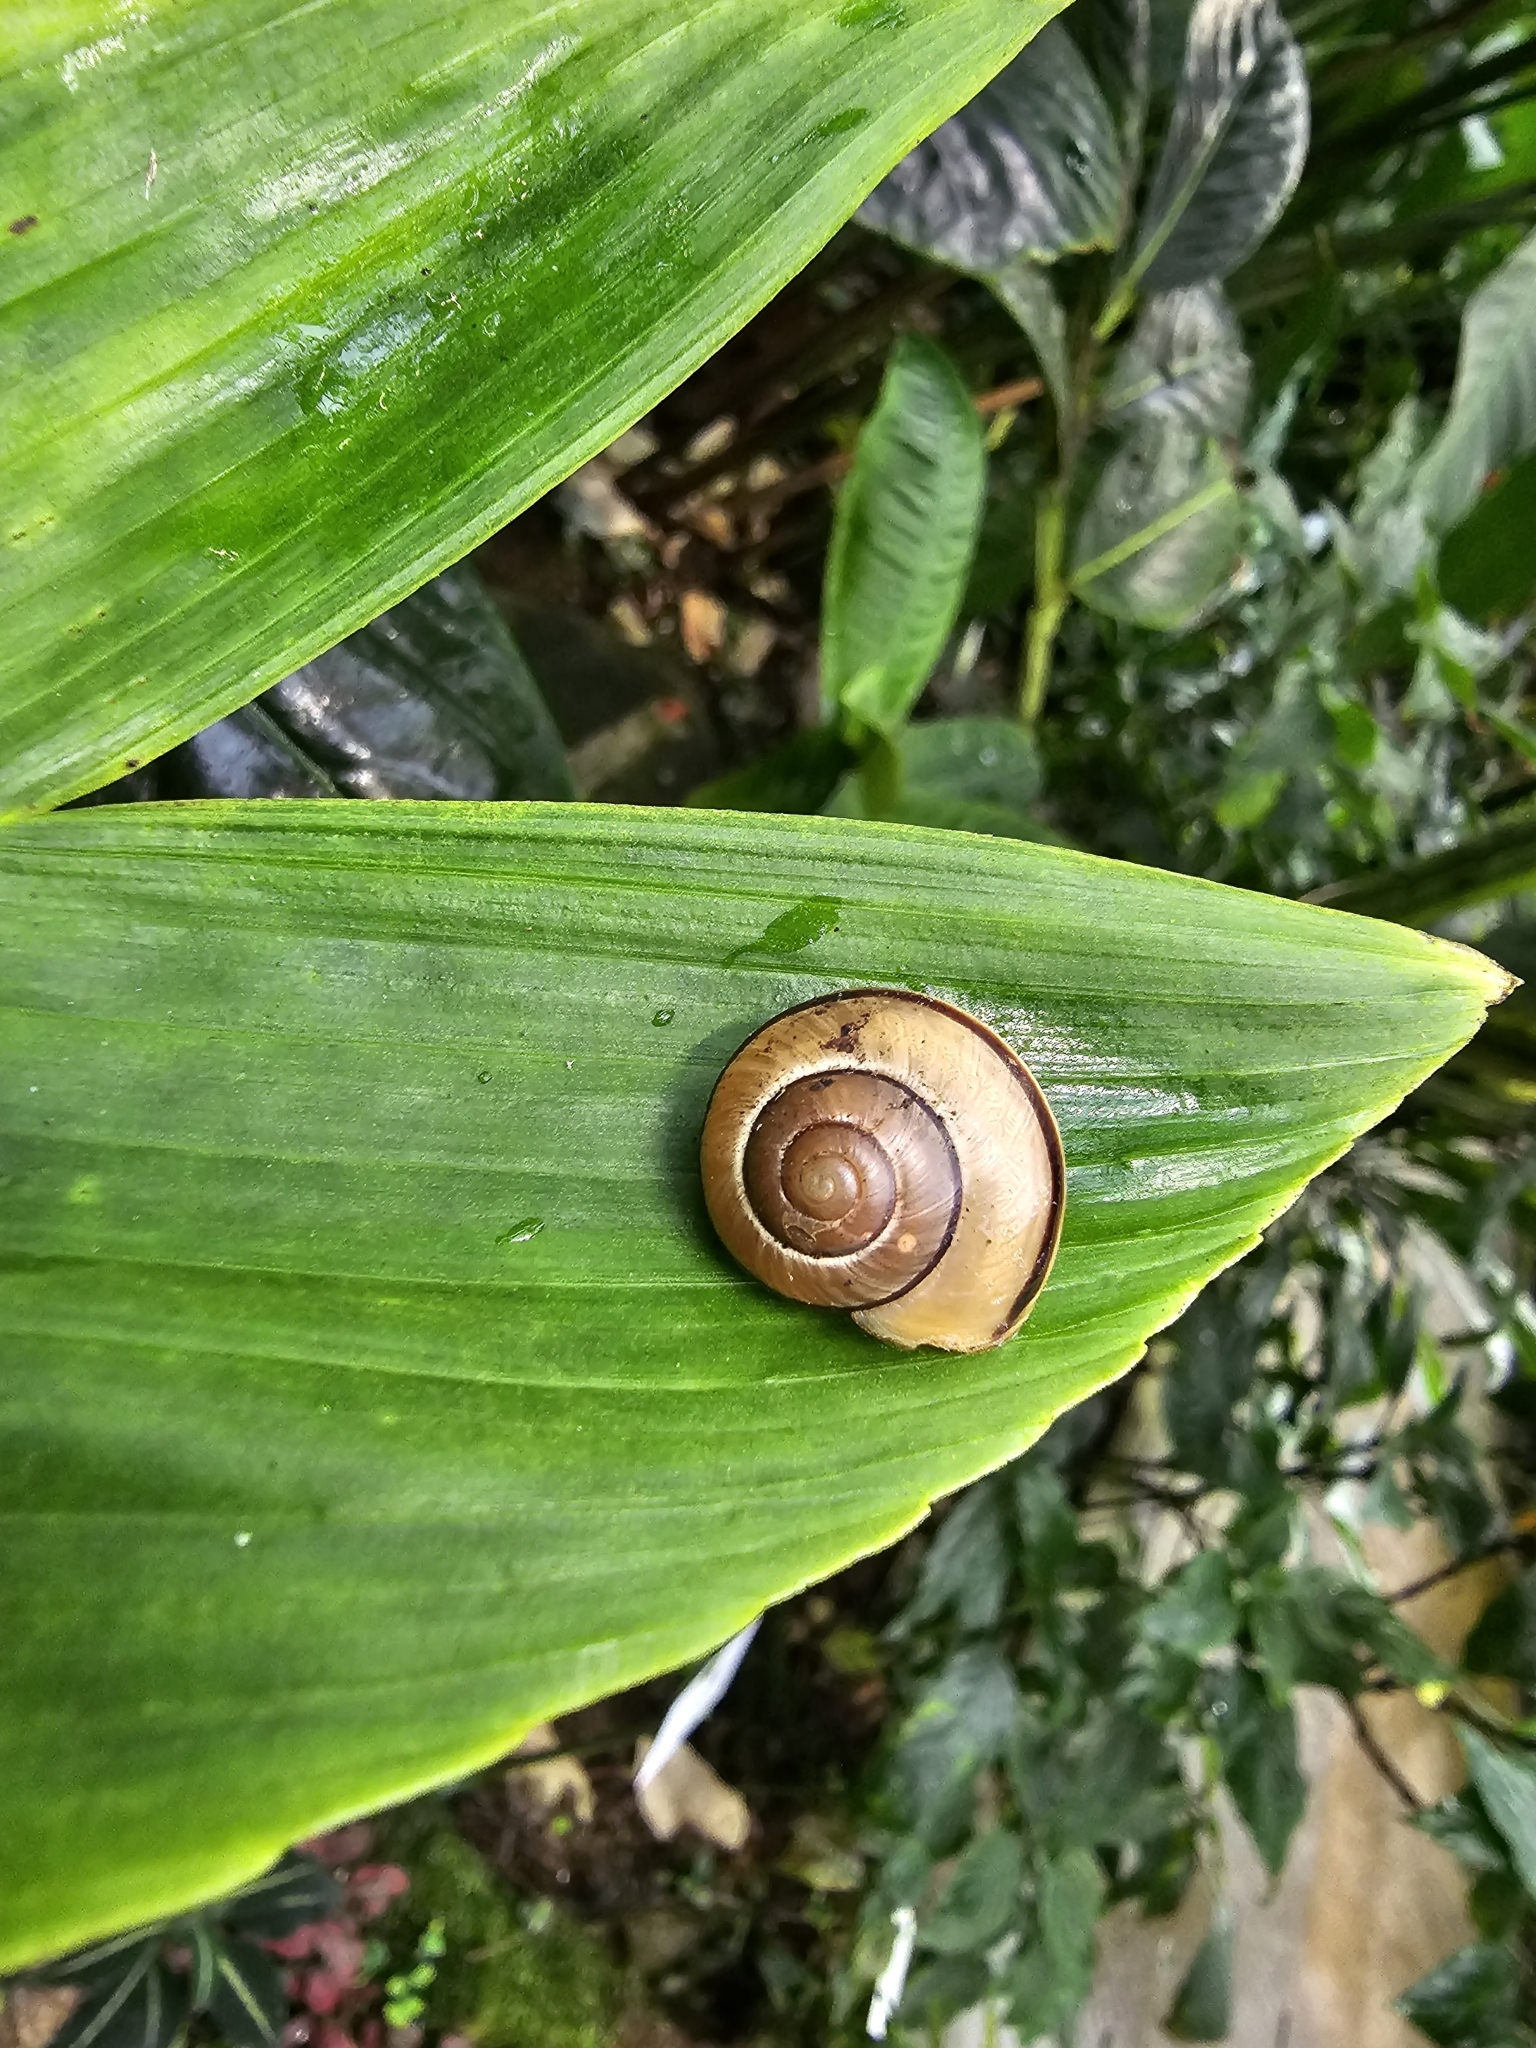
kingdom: Animalia
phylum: Mollusca
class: Gastropoda
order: Stylommatophora
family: Helicidae
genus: Cepaea
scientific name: Cepaea nemoralis
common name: Grovesnail
